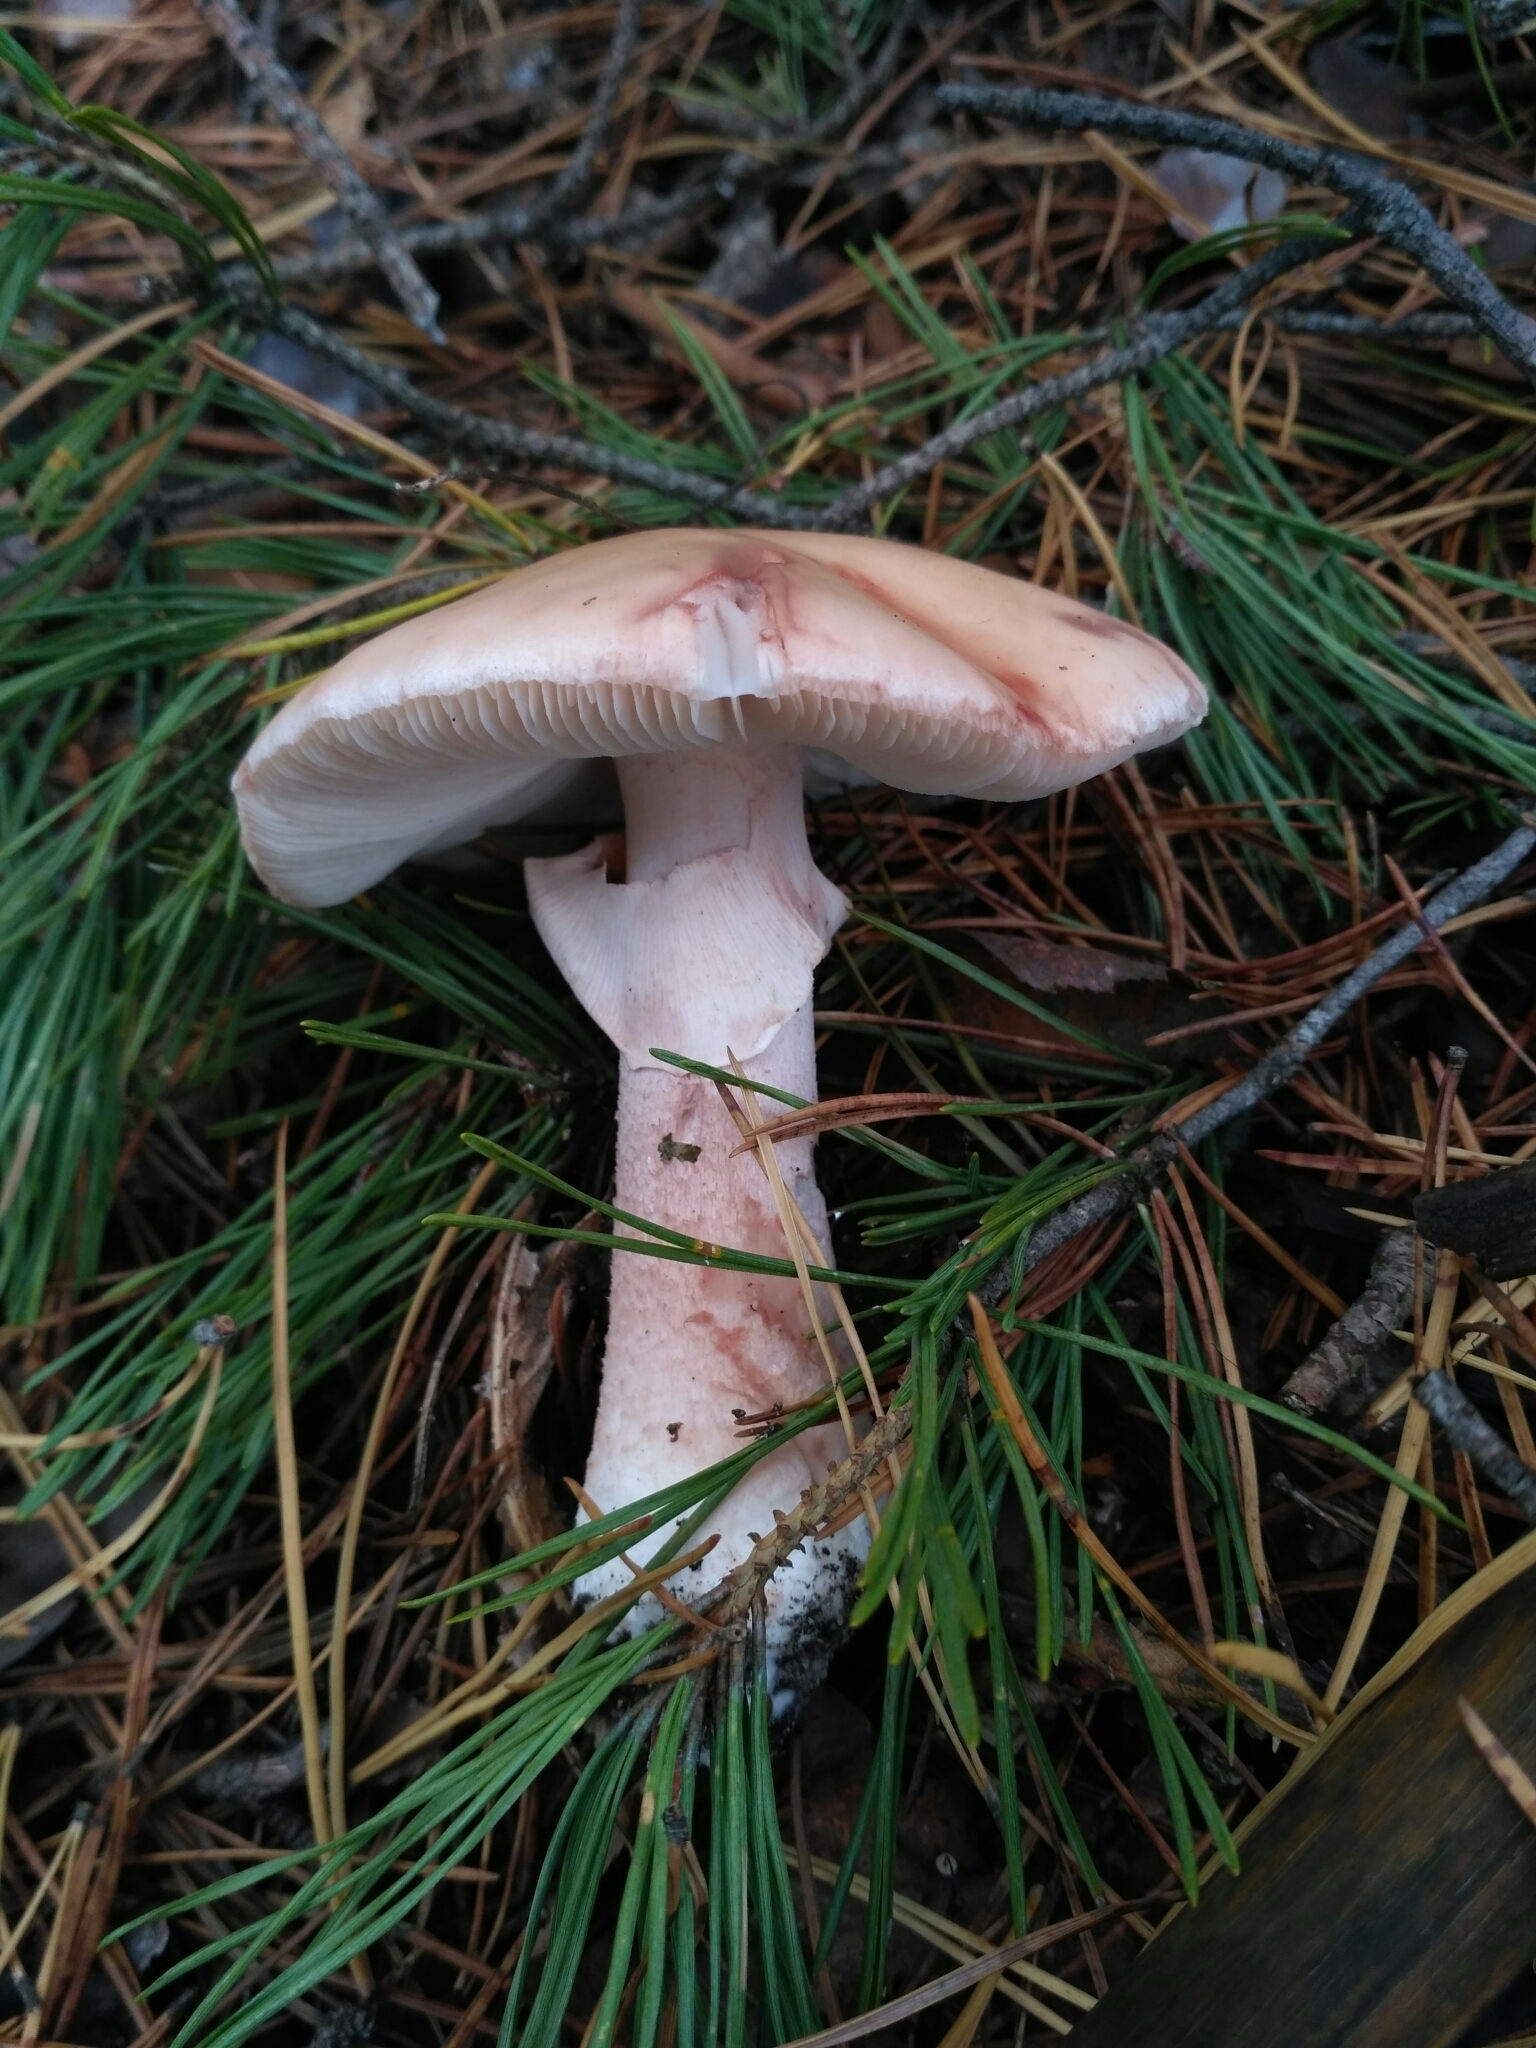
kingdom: Fungi
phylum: Basidiomycota
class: Agaricomycetes
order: Agaricales
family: Amanitaceae
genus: Amanita
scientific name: Amanita rubescens
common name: Blusher
